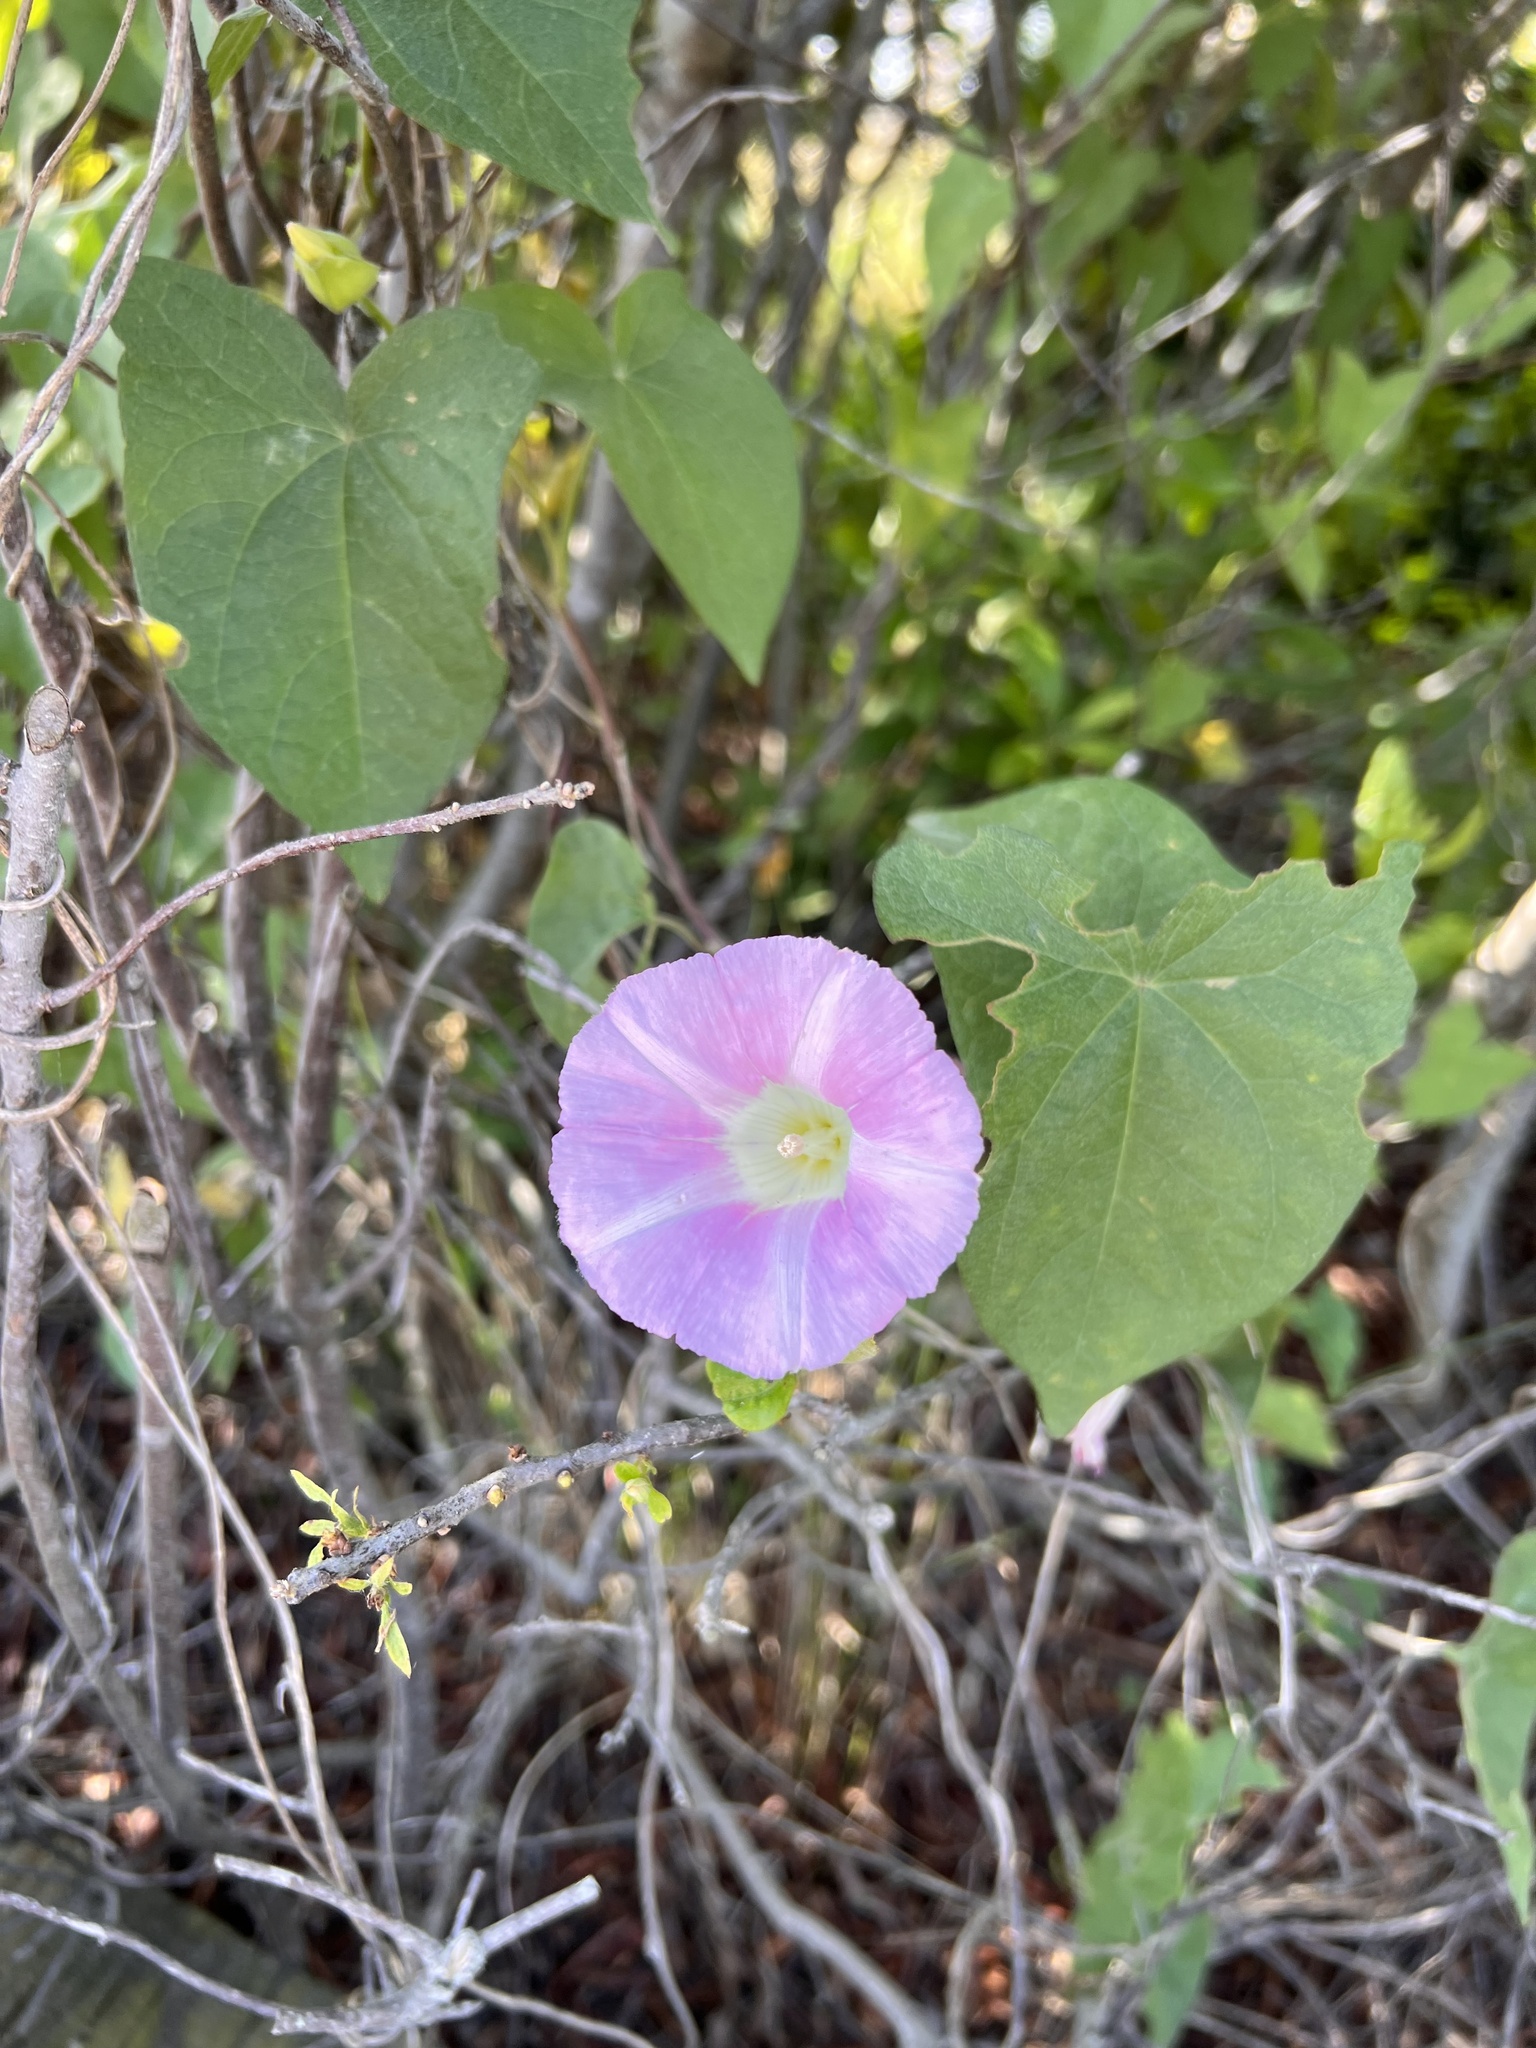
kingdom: Plantae
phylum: Tracheophyta
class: Magnoliopsida
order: Solanales
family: Convolvulaceae
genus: Calystegia
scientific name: Calystegia sepium
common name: Hedge bindweed
